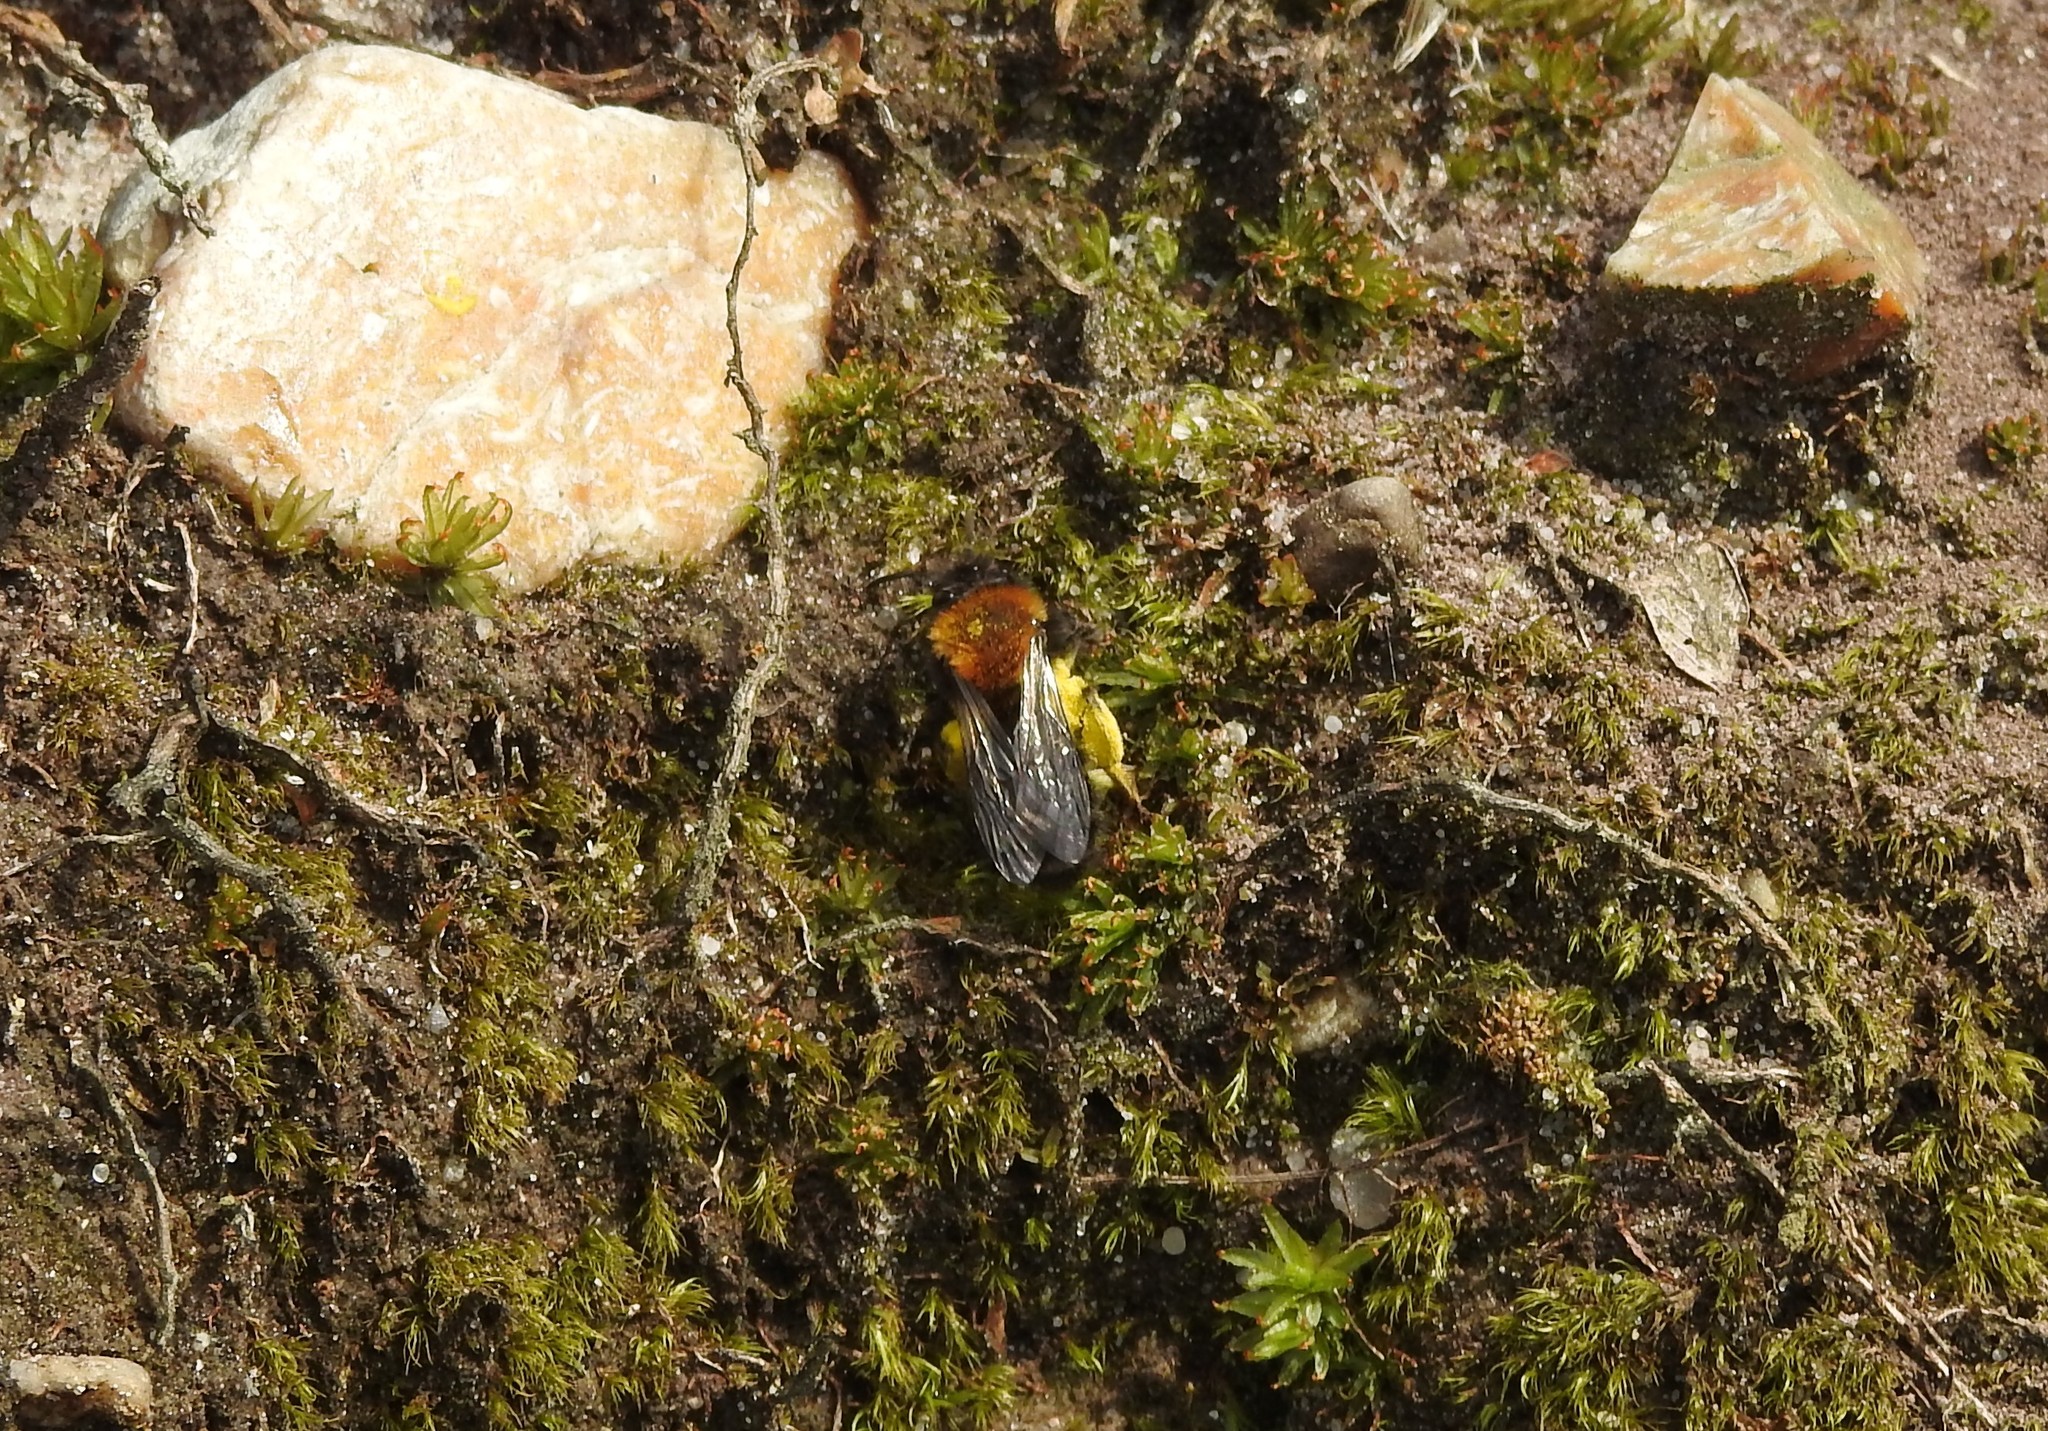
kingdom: Animalia
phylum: Arthropoda
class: Insecta
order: Hymenoptera
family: Andrenidae
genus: Andrena
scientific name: Andrena clarkella
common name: Clarke's mining bee
